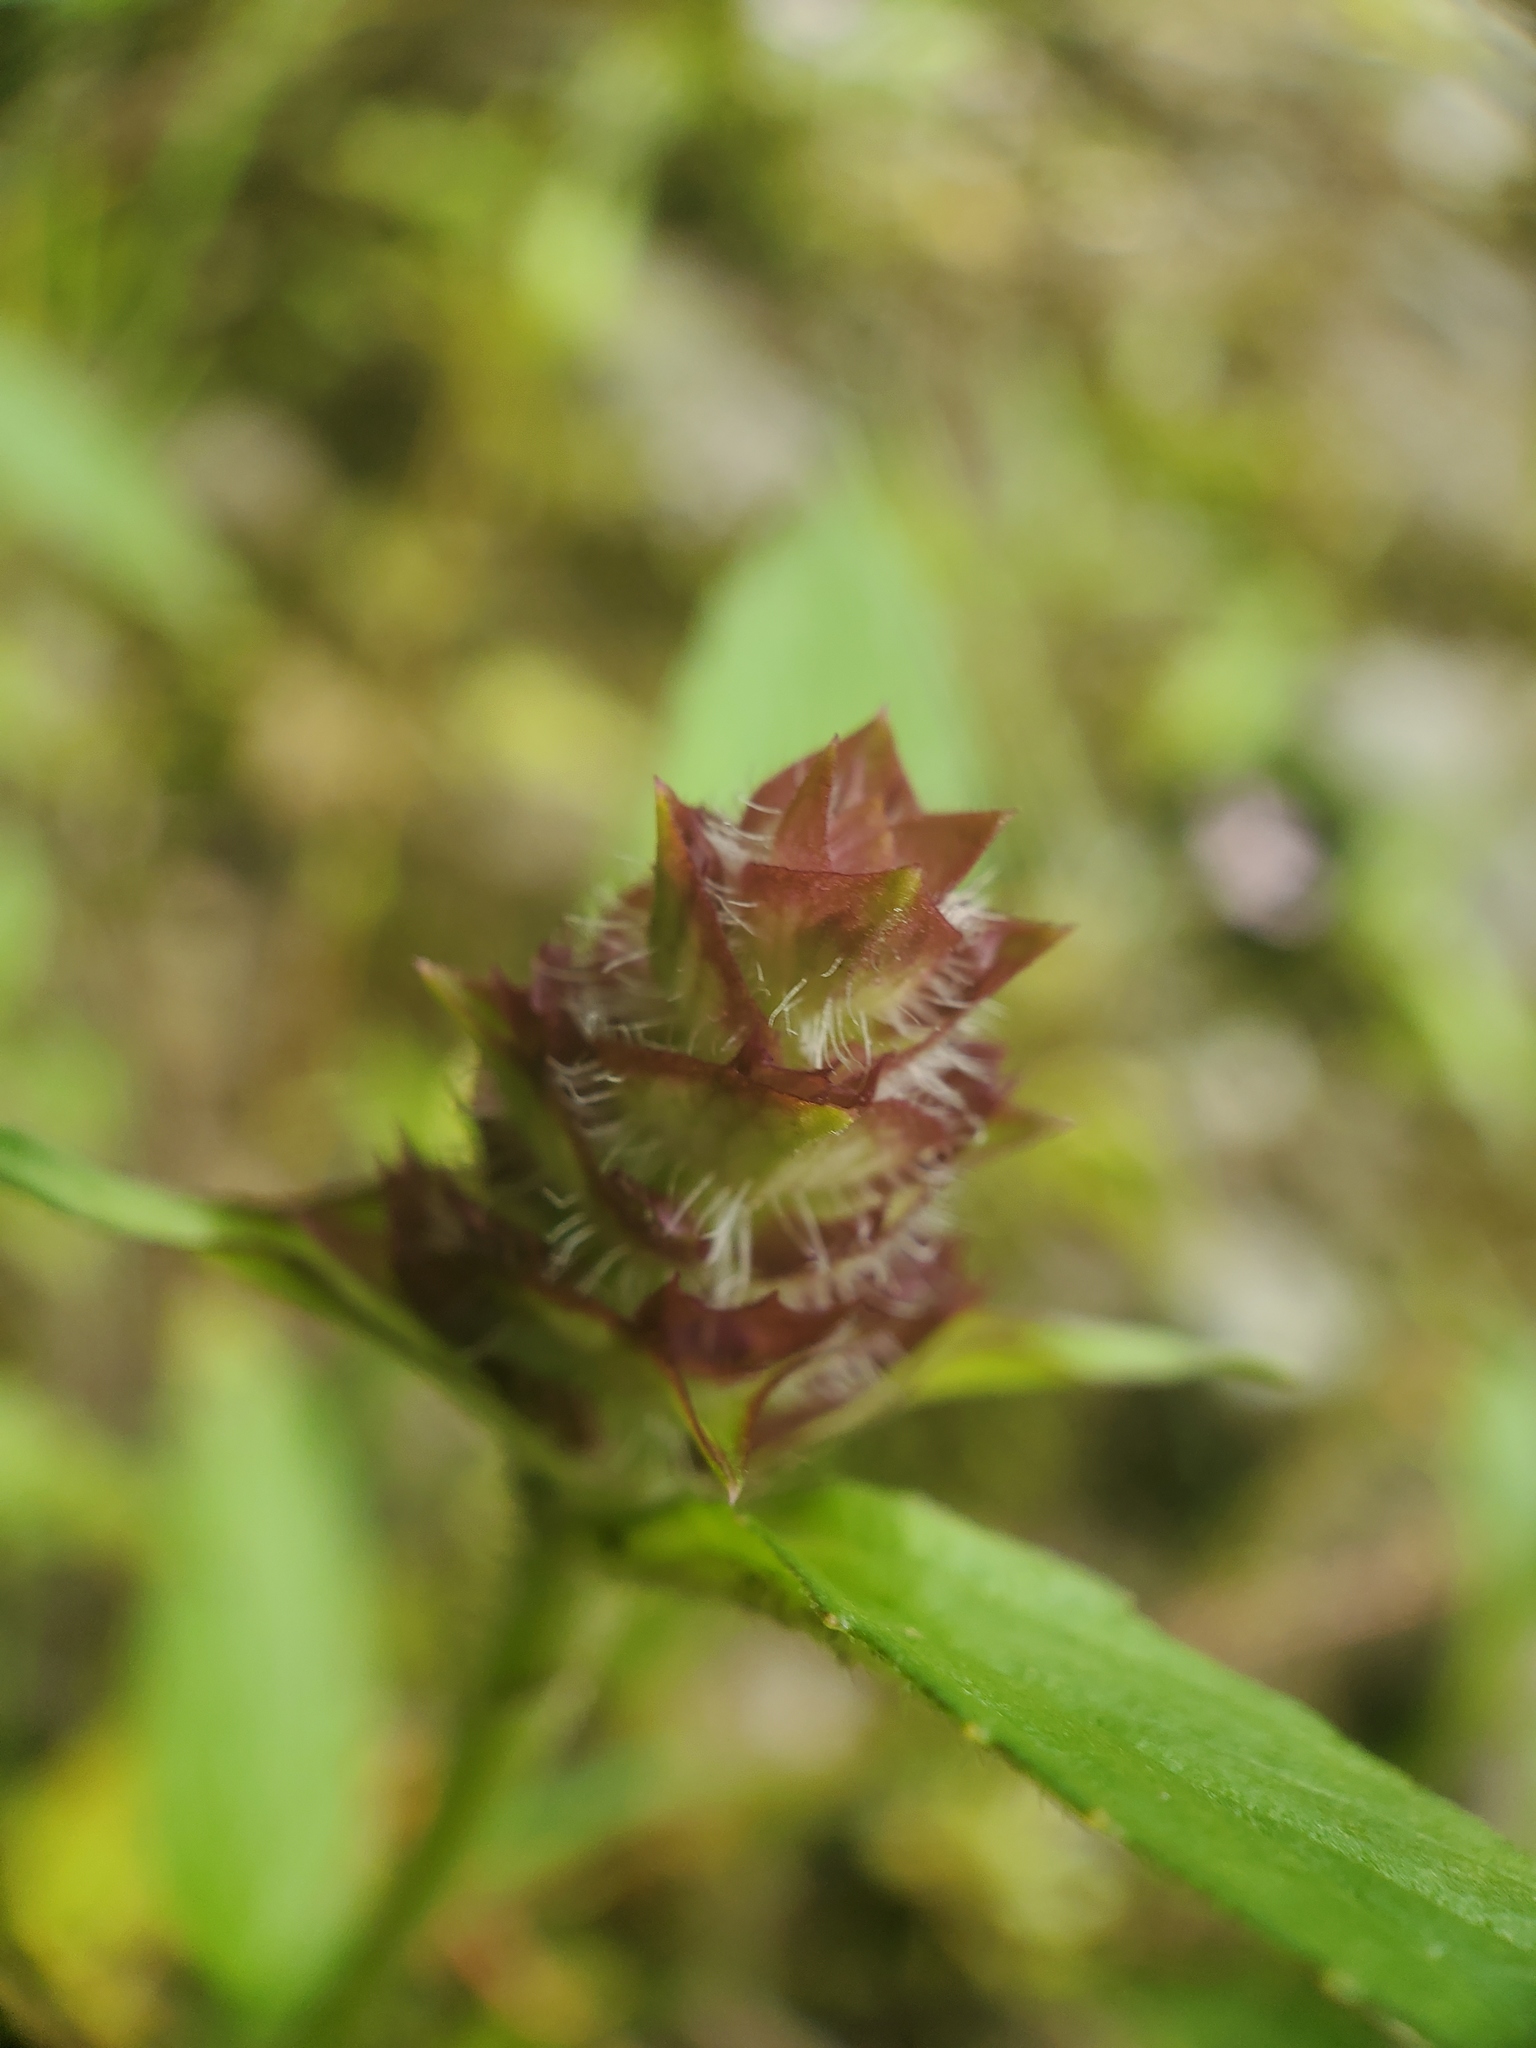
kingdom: Plantae
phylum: Tracheophyta
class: Magnoliopsida
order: Lamiales
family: Lamiaceae
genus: Prunella
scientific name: Prunella vulgaris
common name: Heal-all
